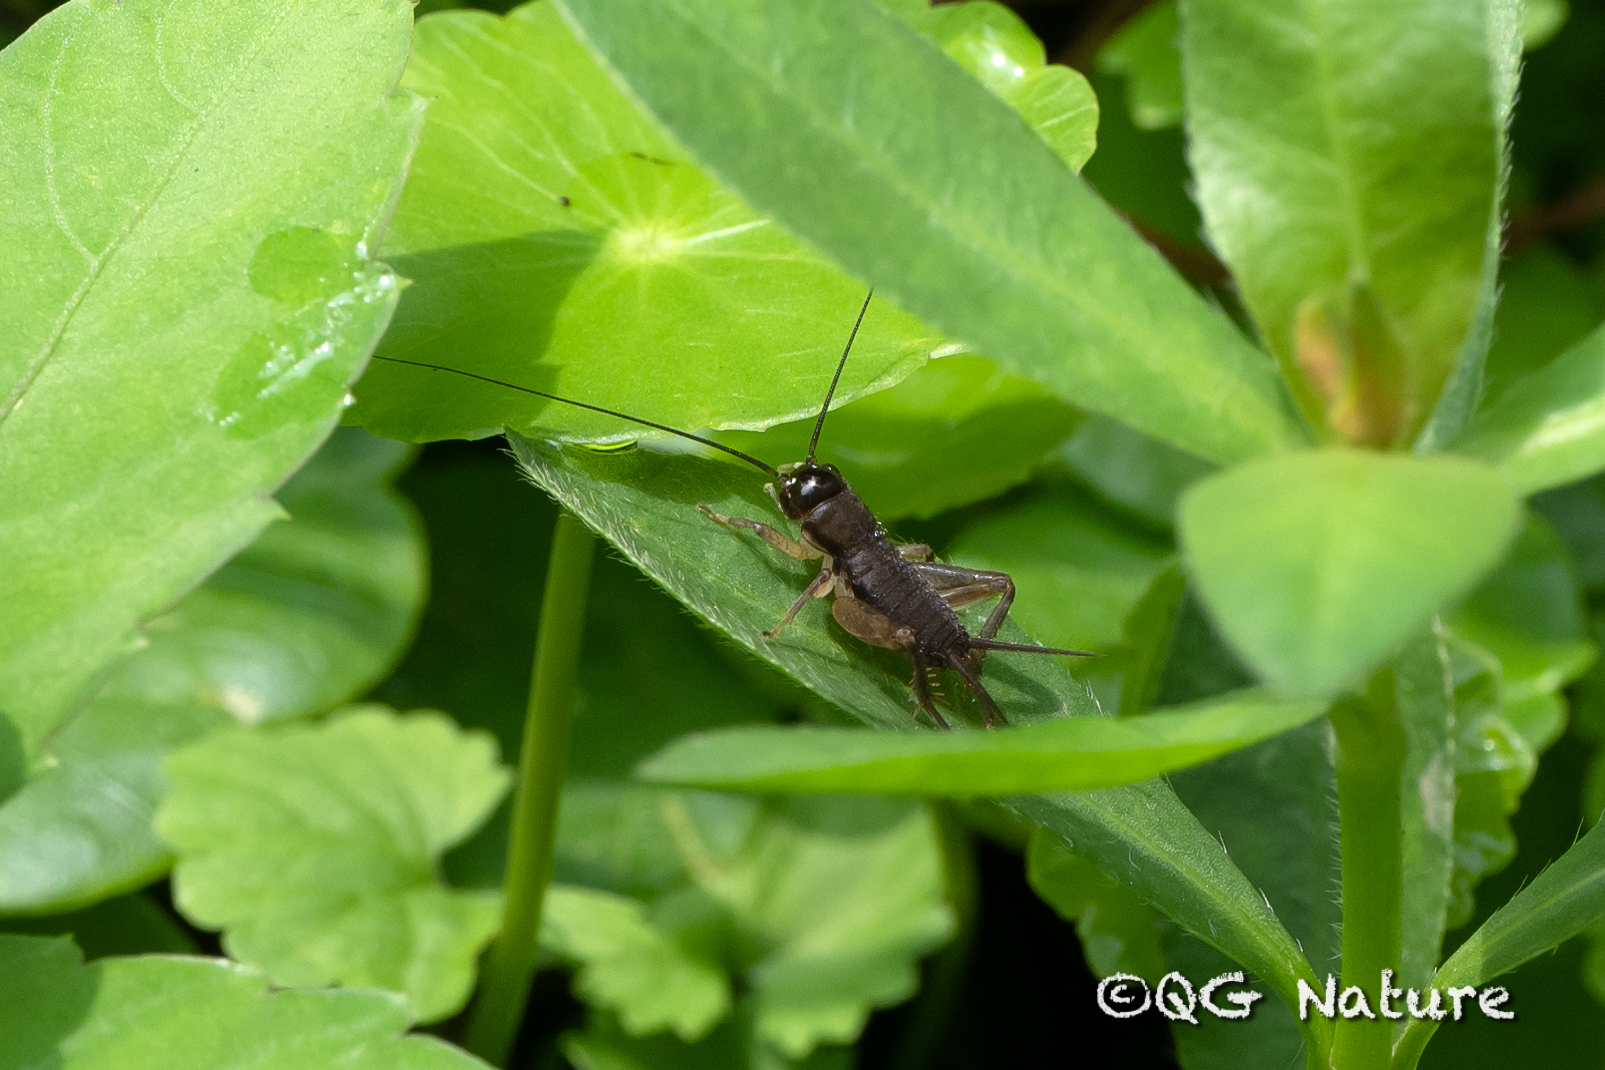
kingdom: Animalia
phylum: Arthropoda
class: Insecta
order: Orthoptera
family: Gryllidae
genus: Mitius
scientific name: Mitius minor
